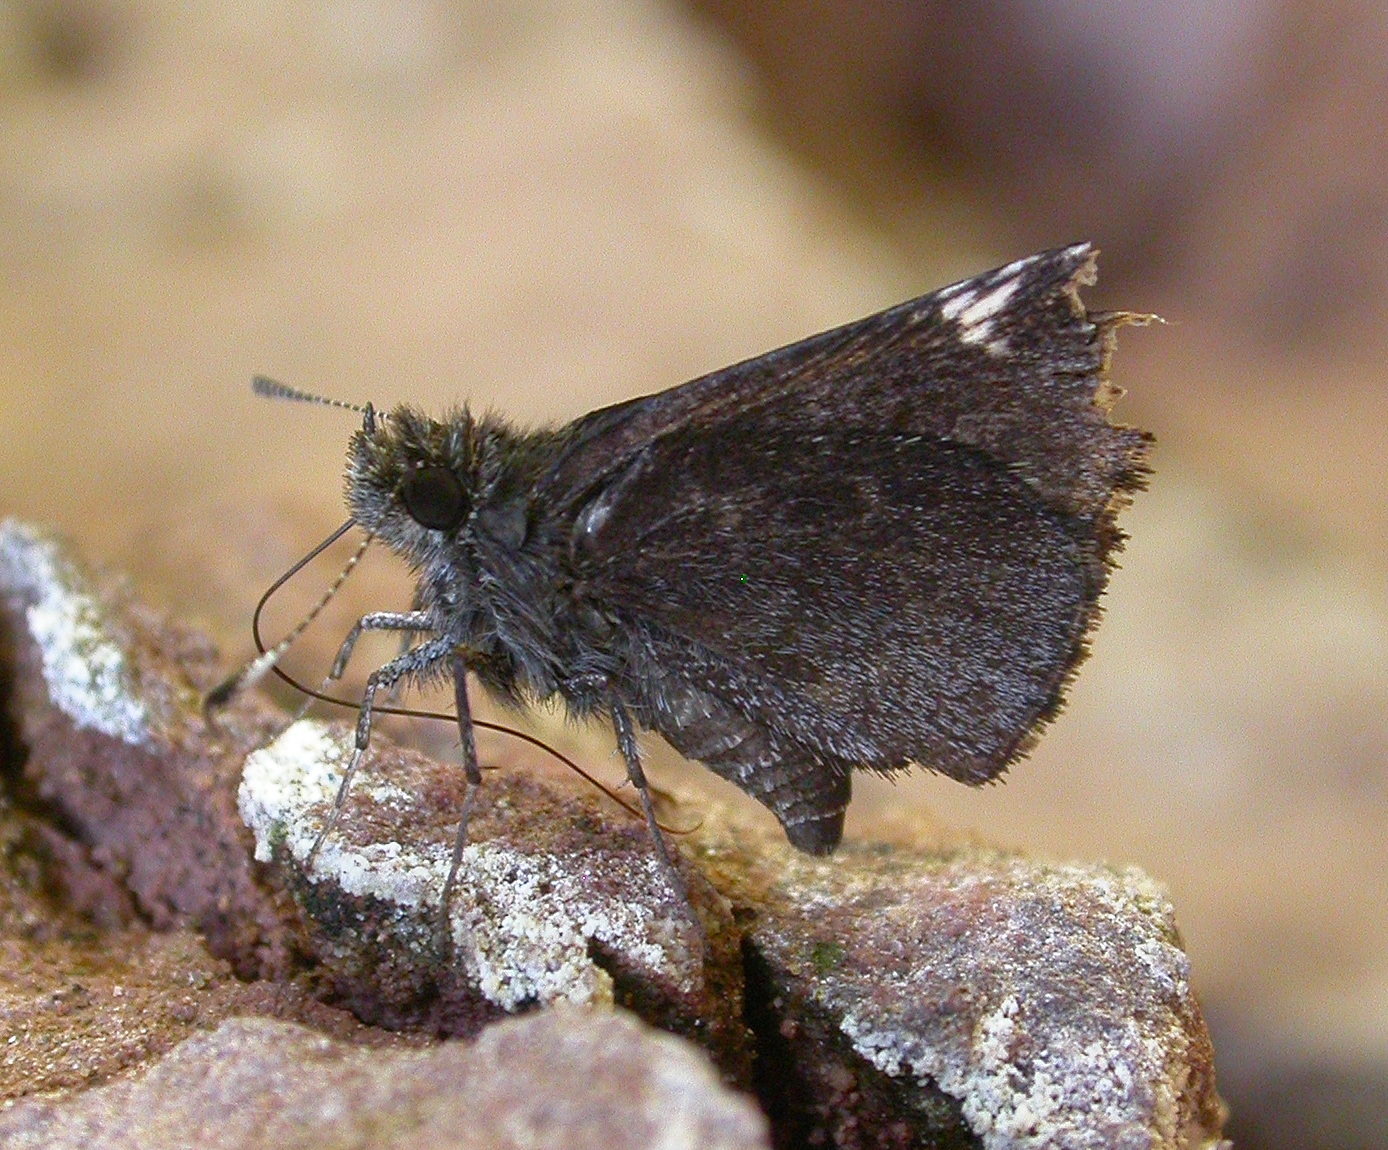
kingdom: Animalia
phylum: Arthropoda
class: Insecta
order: Lepidoptera
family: Hesperiidae
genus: Mastor
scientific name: Mastor vialis
